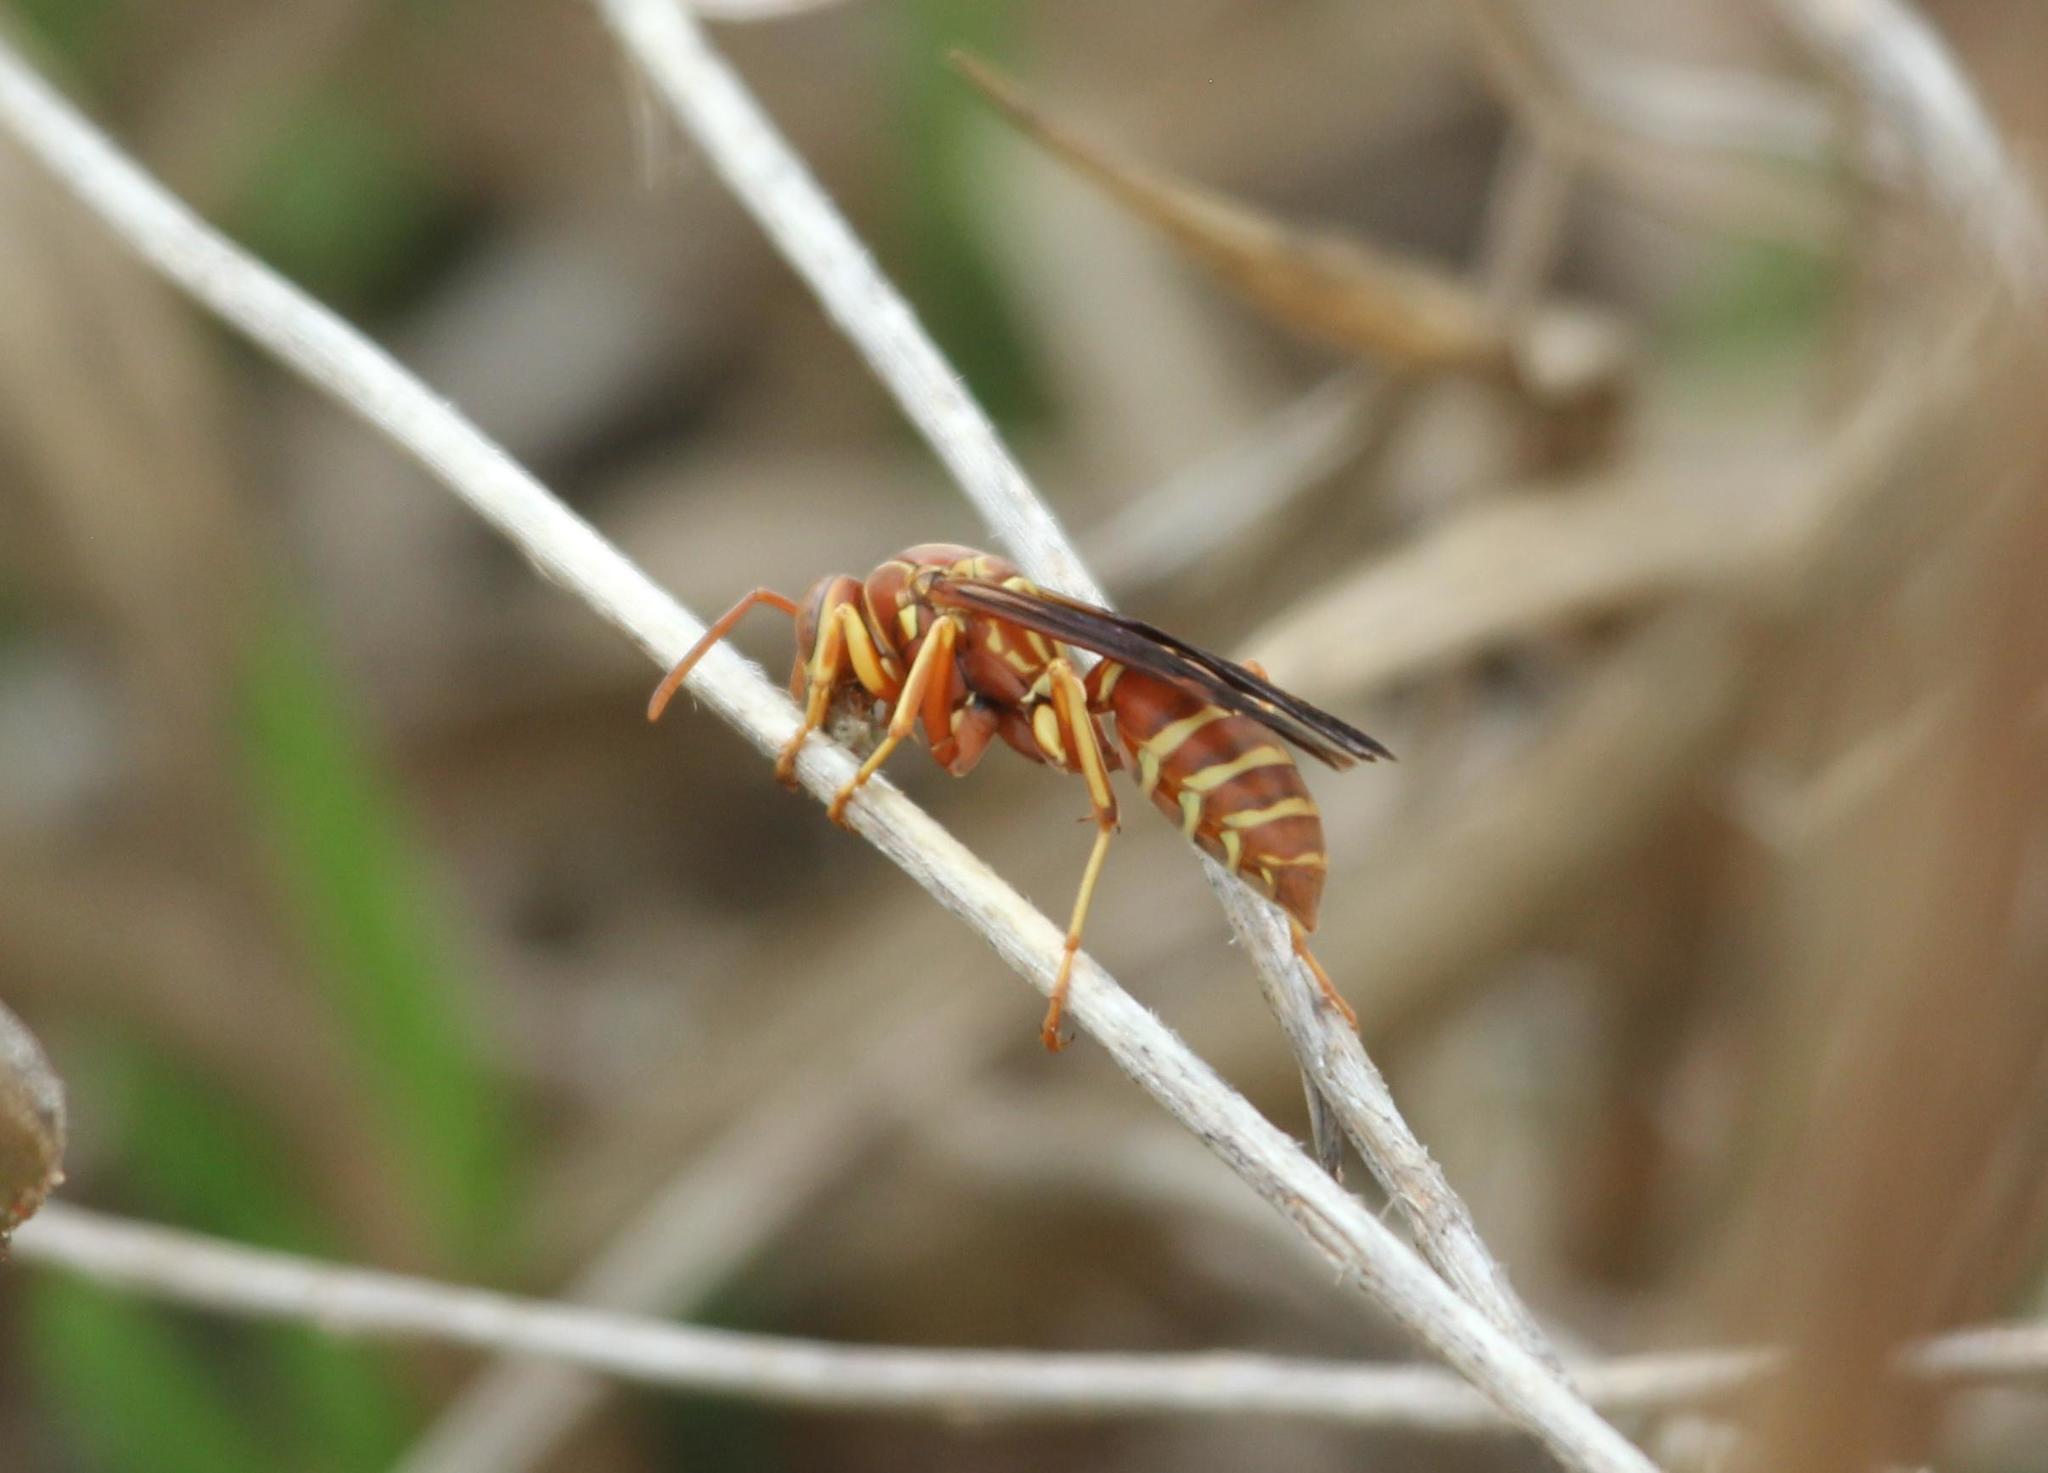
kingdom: Animalia
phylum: Arthropoda
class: Insecta
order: Hymenoptera
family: Eumenidae
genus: Polistes
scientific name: Polistes bellicosus
